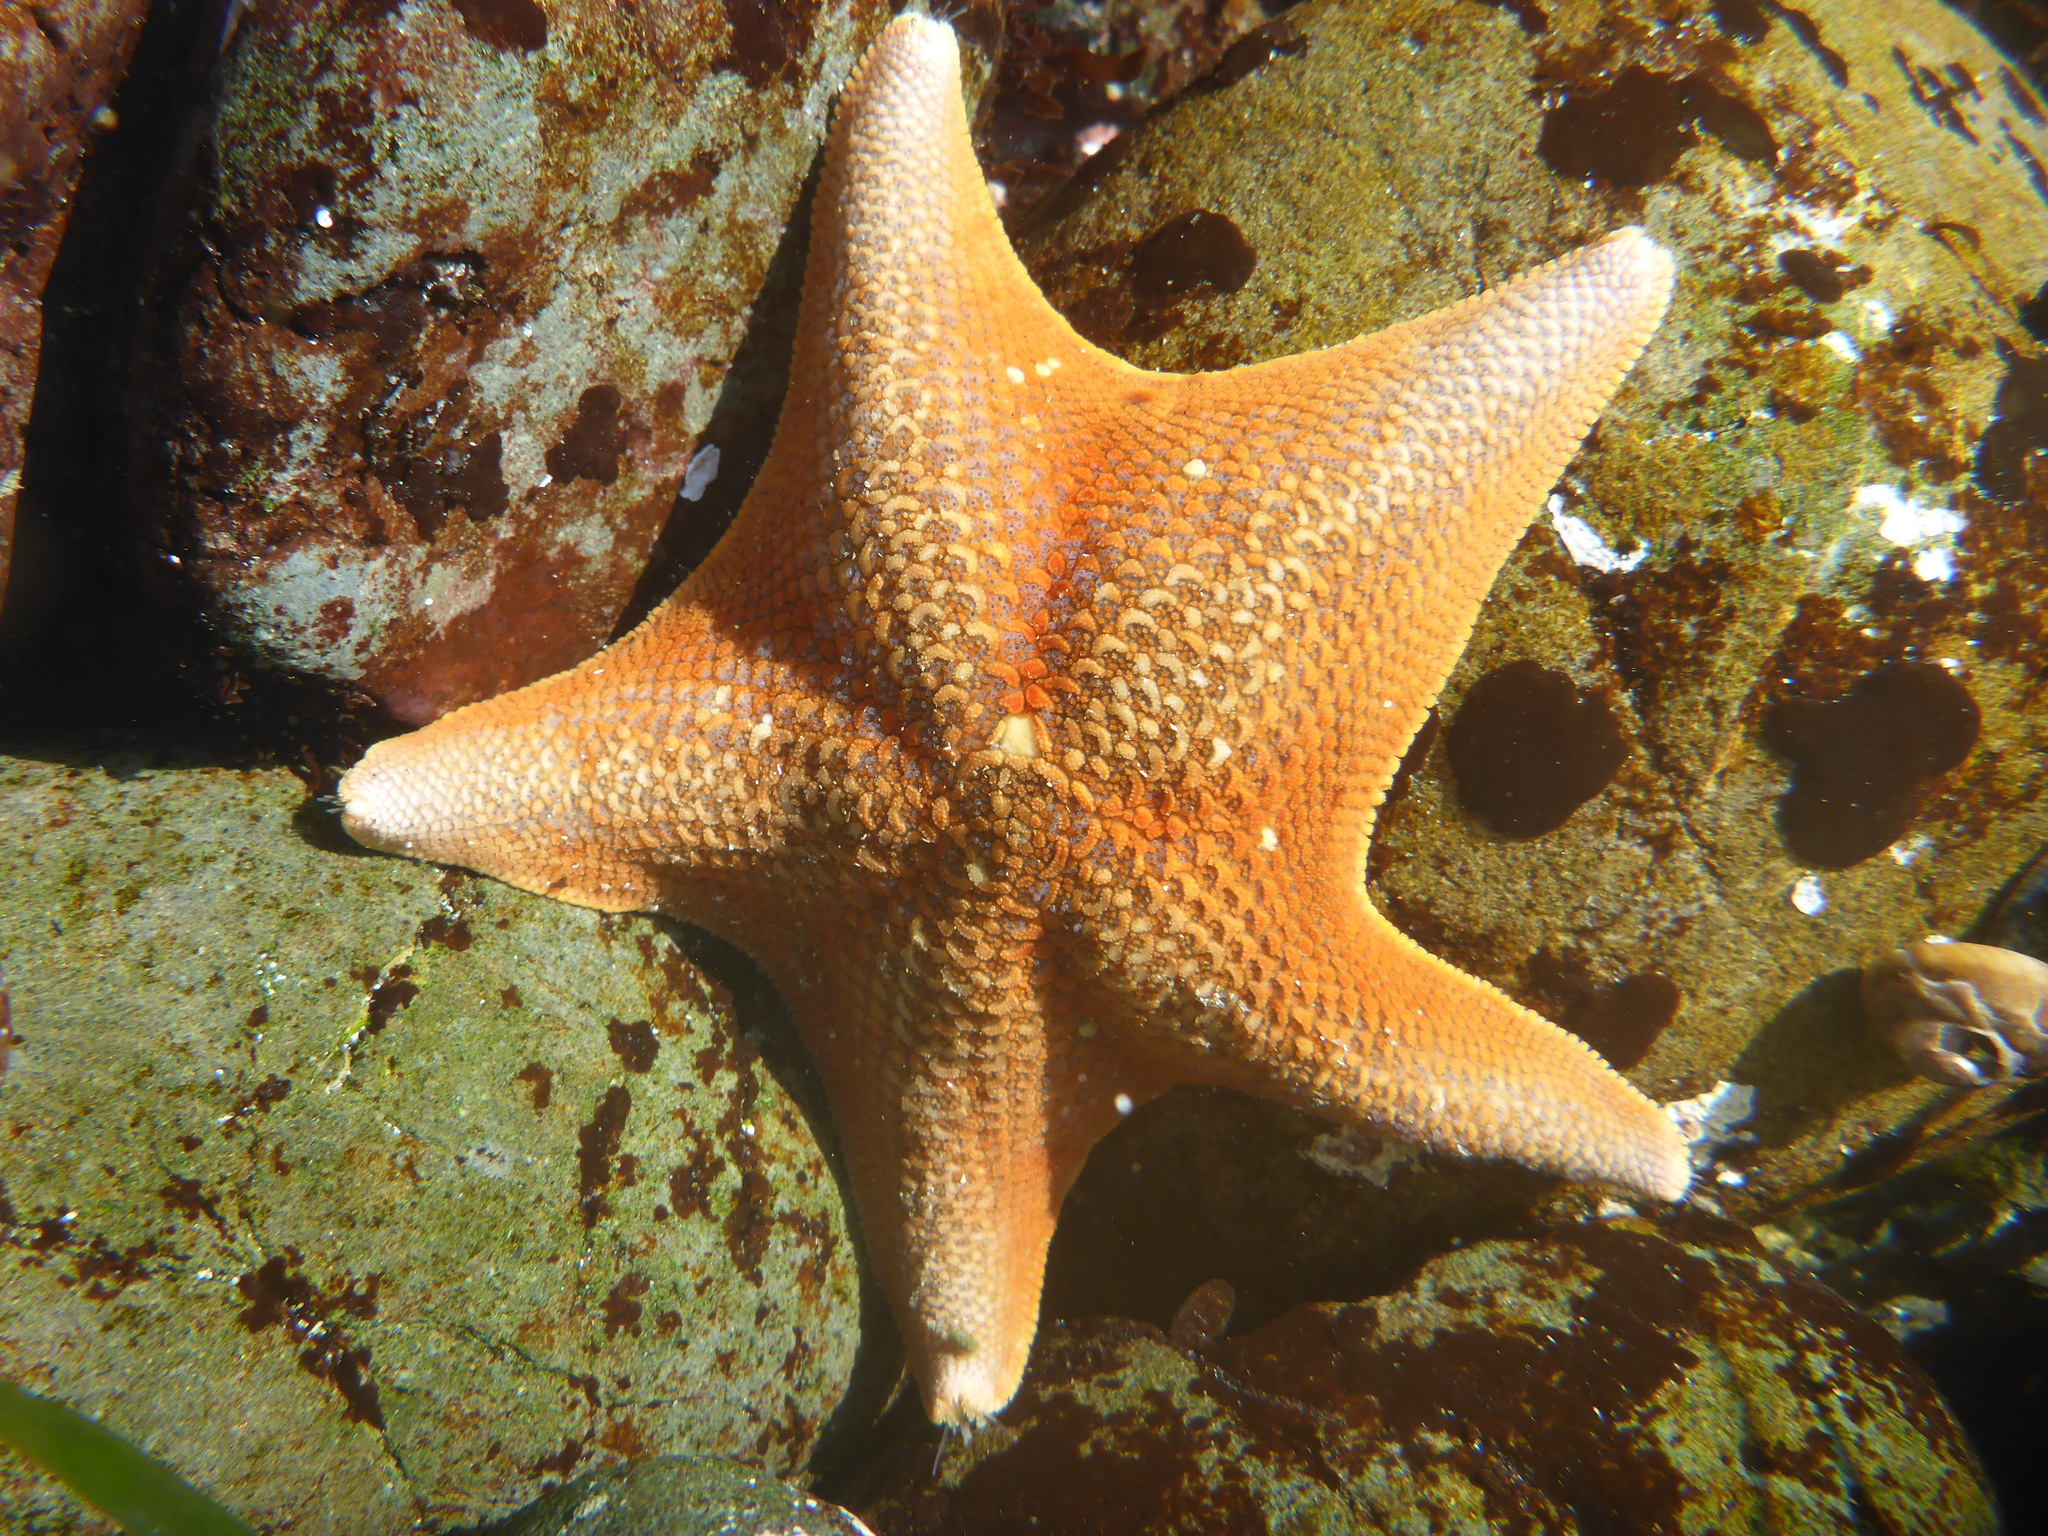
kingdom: Animalia
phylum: Echinodermata
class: Asteroidea
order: Valvatida
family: Asterinidae
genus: Patiria
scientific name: Patiria miniata
